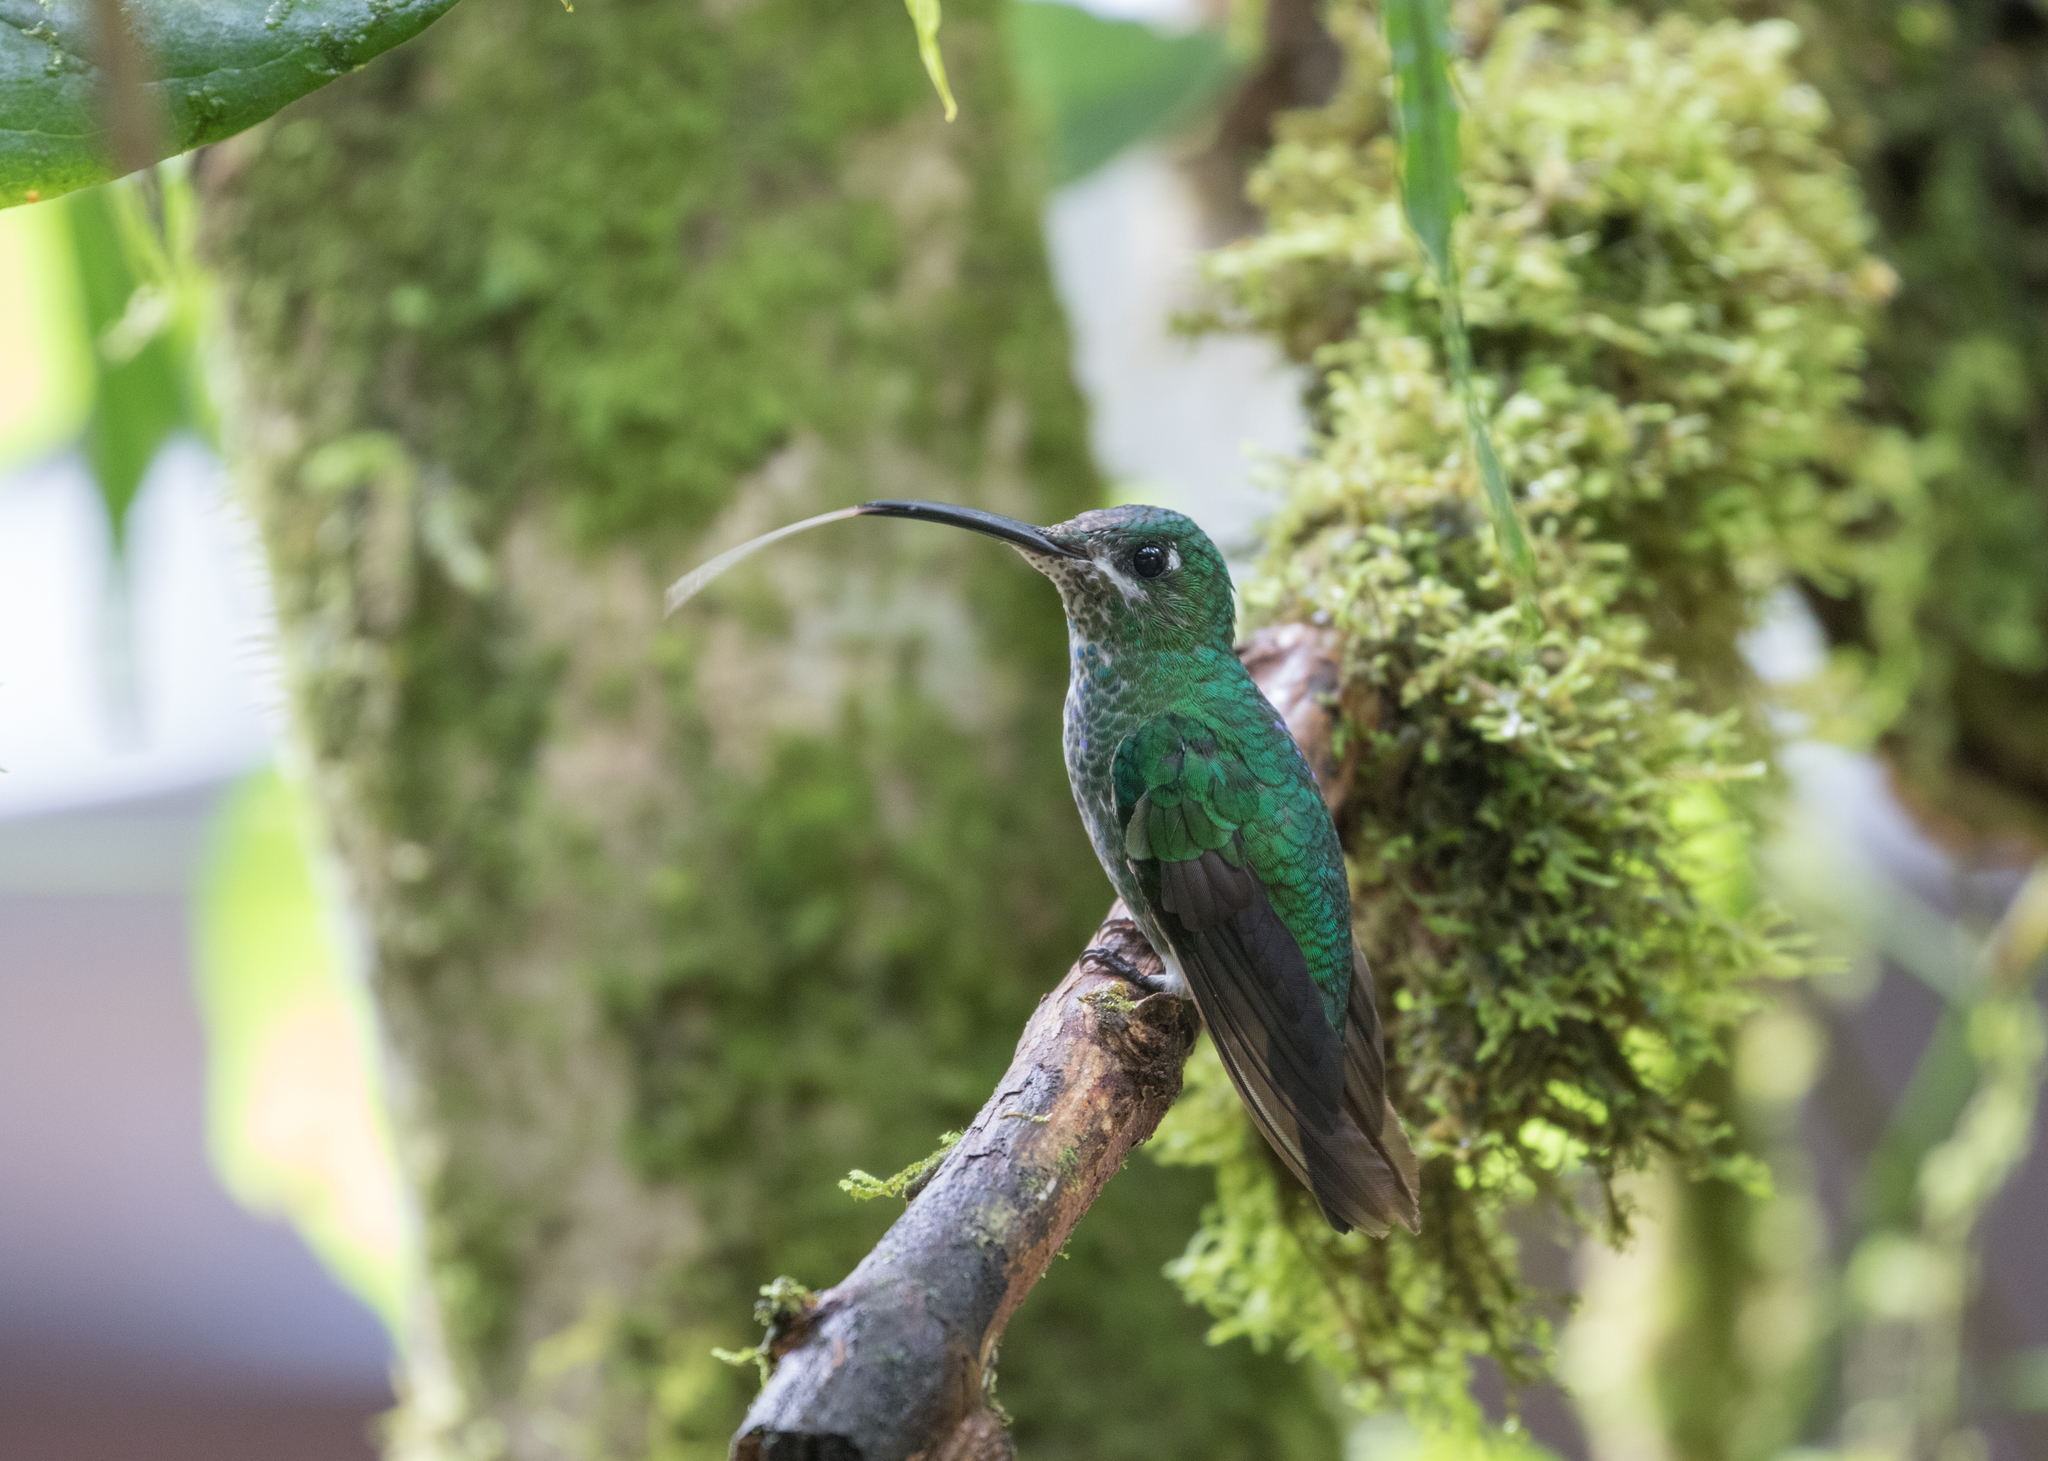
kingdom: Animalia
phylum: Chordata
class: Aves
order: Apodiformes
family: Trochilidae
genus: Heliodoxa
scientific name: Heliodoxa jacula
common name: Green-crowned brilliant
